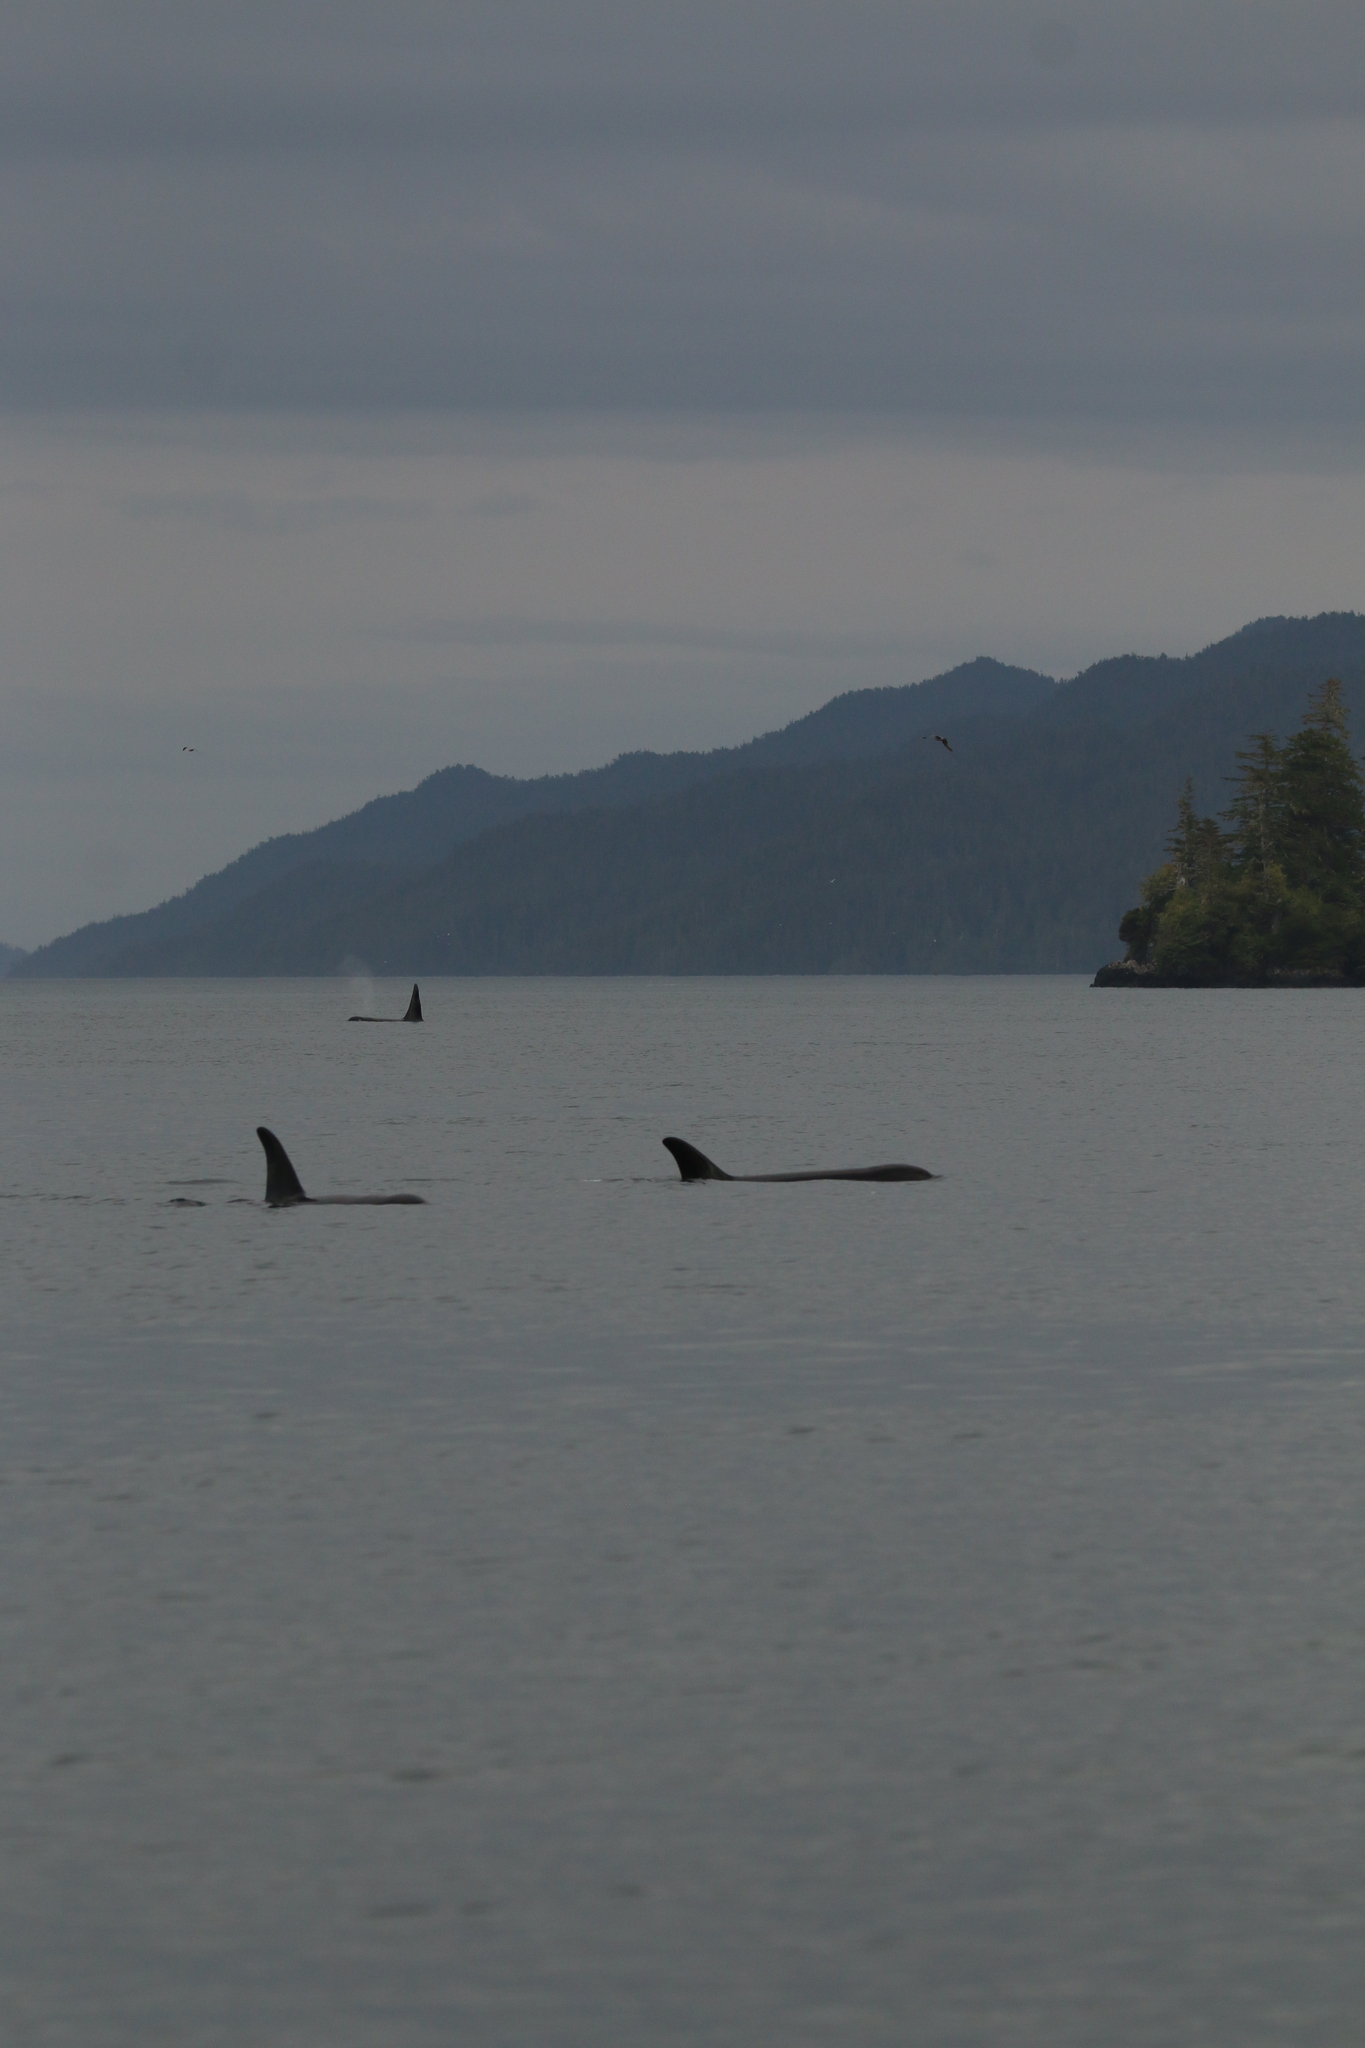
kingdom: Animalia
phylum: Chordata
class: Mammalia
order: Cetacea
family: Delphinidae
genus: Orcinus
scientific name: Orcinus orca
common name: Killer whale
